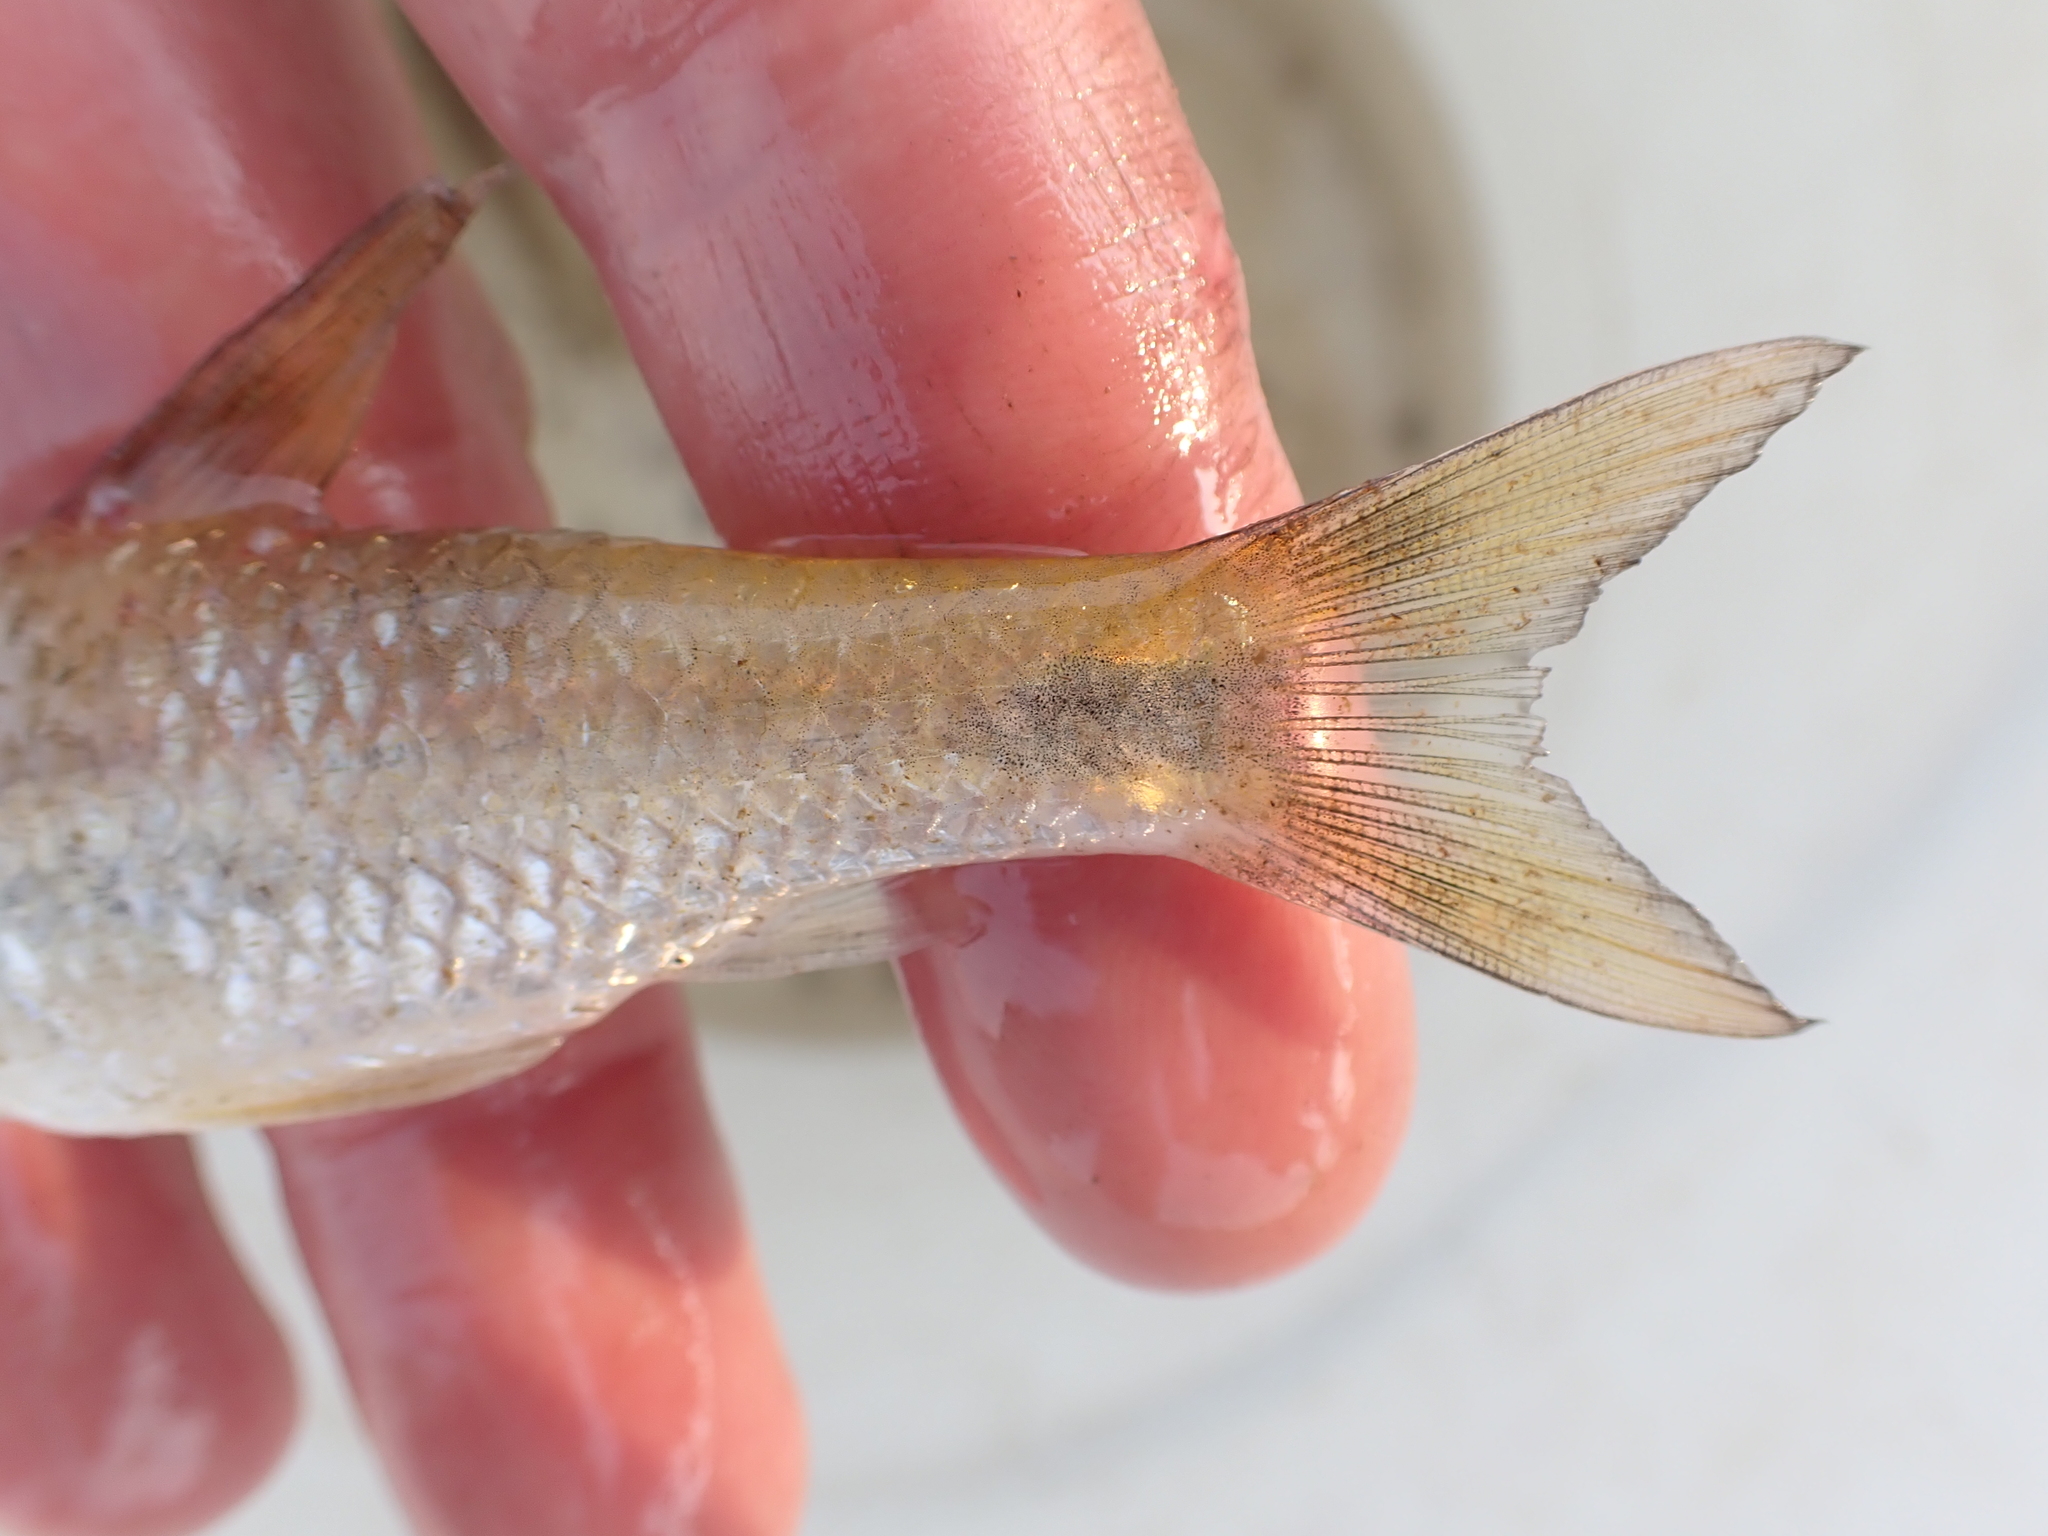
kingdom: Animalia
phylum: Chordata
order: Cypriniformes
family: Cyprinidae
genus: Enteromius
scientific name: Enteromius poechii
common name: Dashtail barb
